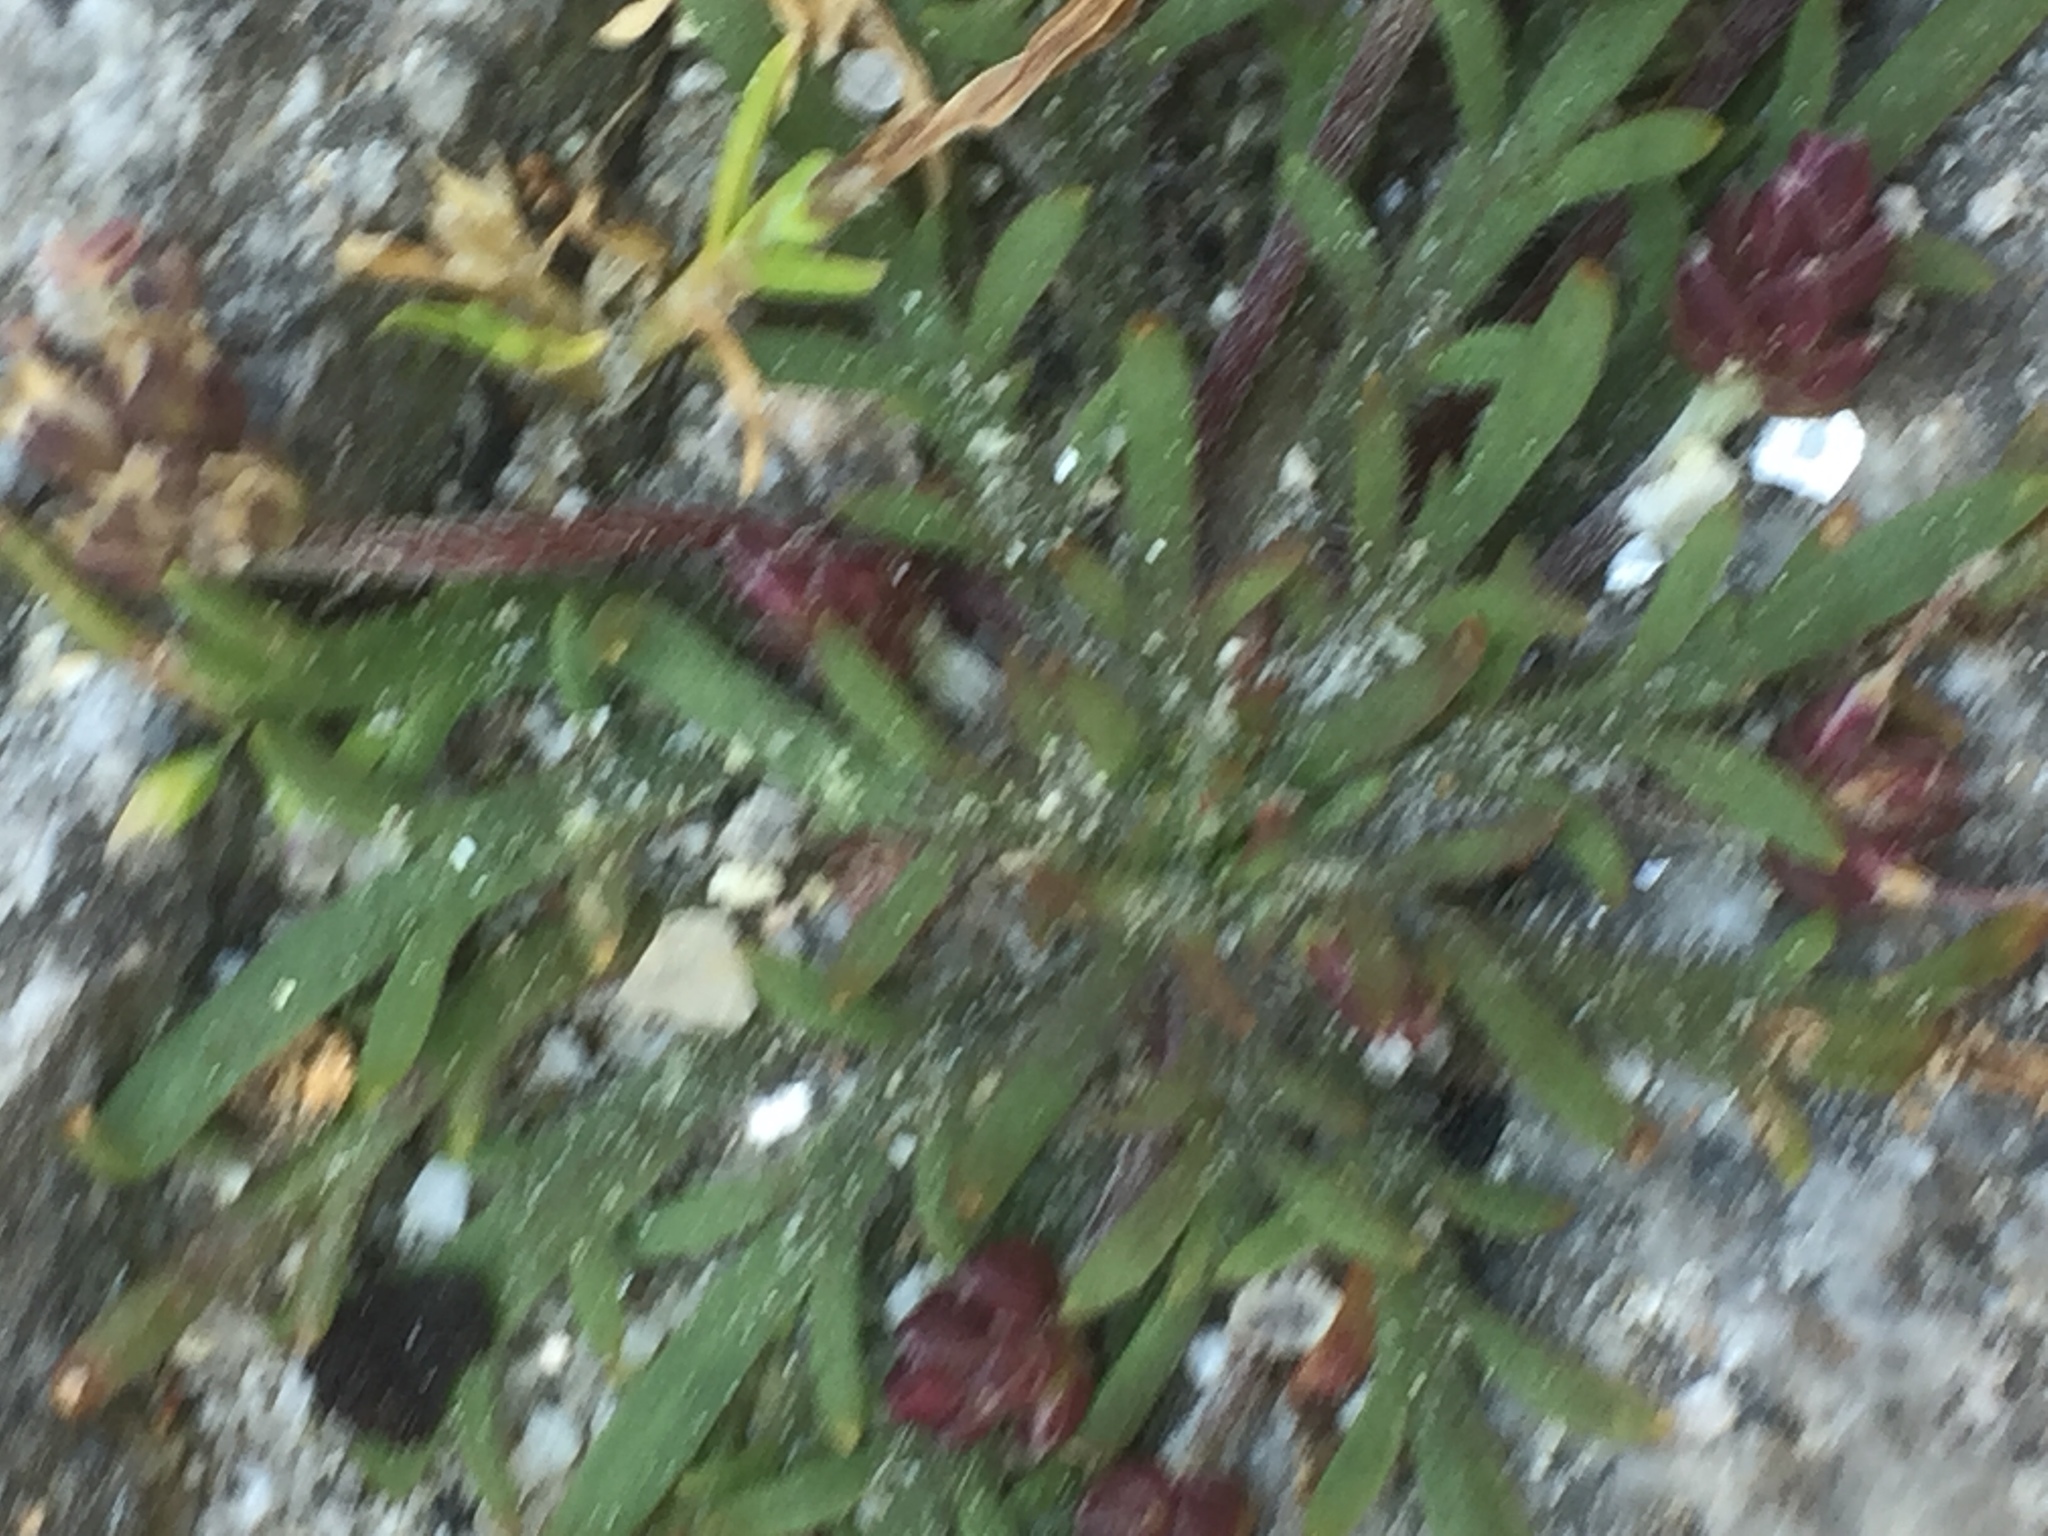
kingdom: Plantae
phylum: Tracheophyta
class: Magnoliopsida
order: Lamiales
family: Plantaginaceae
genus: Plantago
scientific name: Plantago coronopus
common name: Buck's-horn plantain
